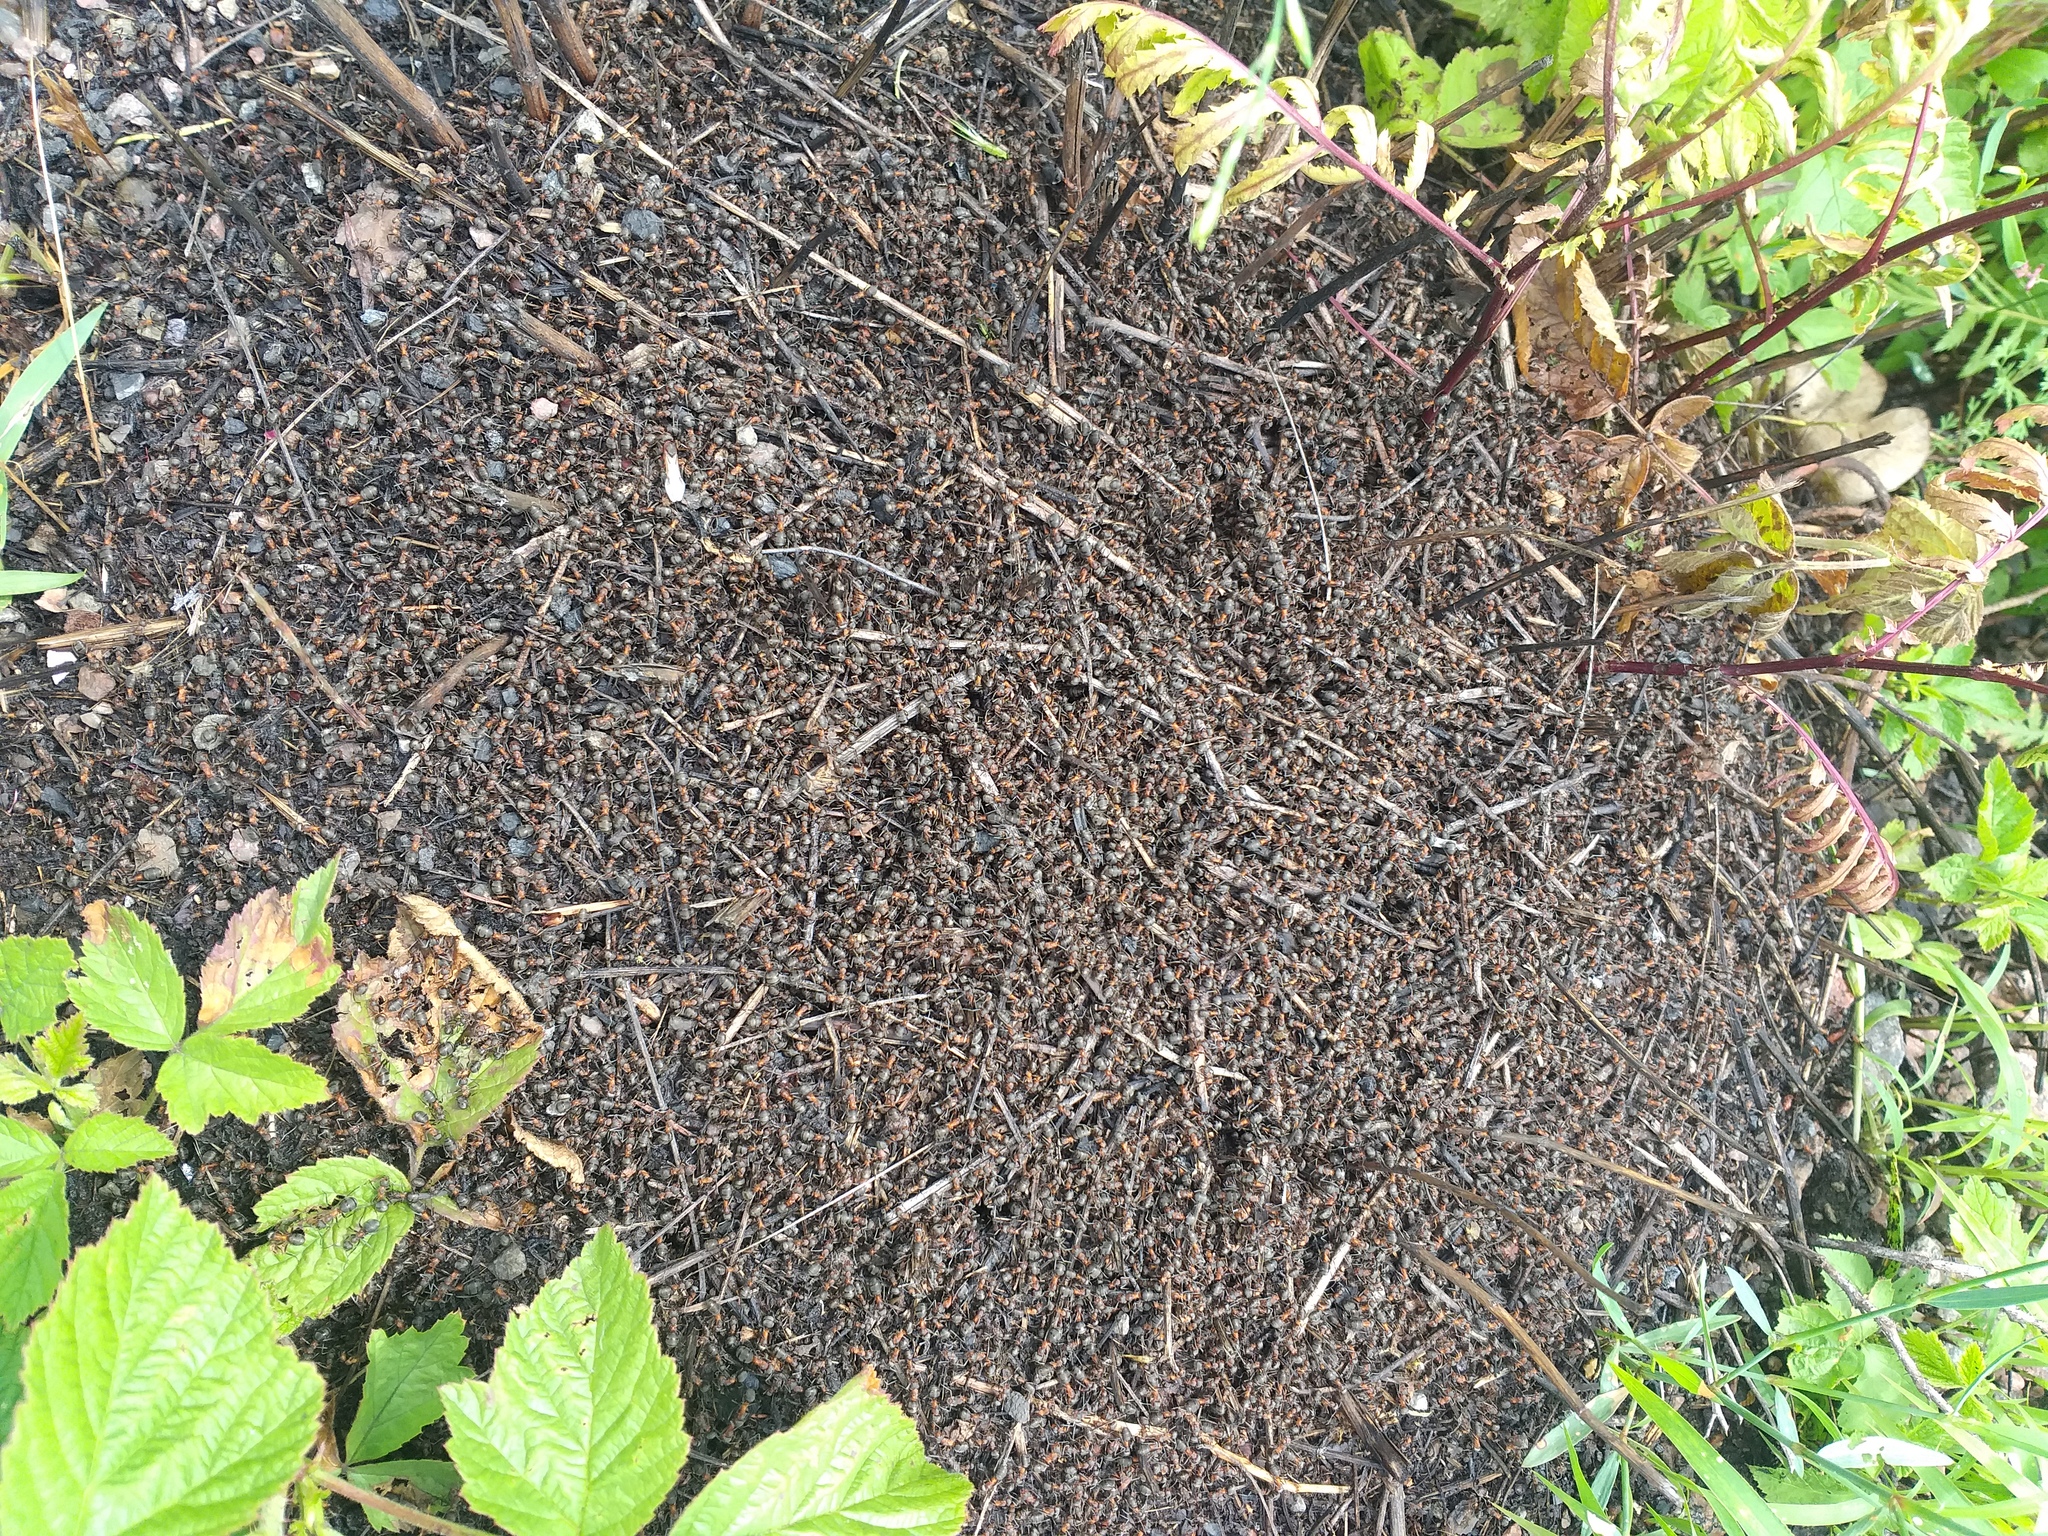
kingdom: Animalia
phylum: Arthropoda
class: Insecta
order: Hymenoptera
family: Formicidae
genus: Formica
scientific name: Formica
